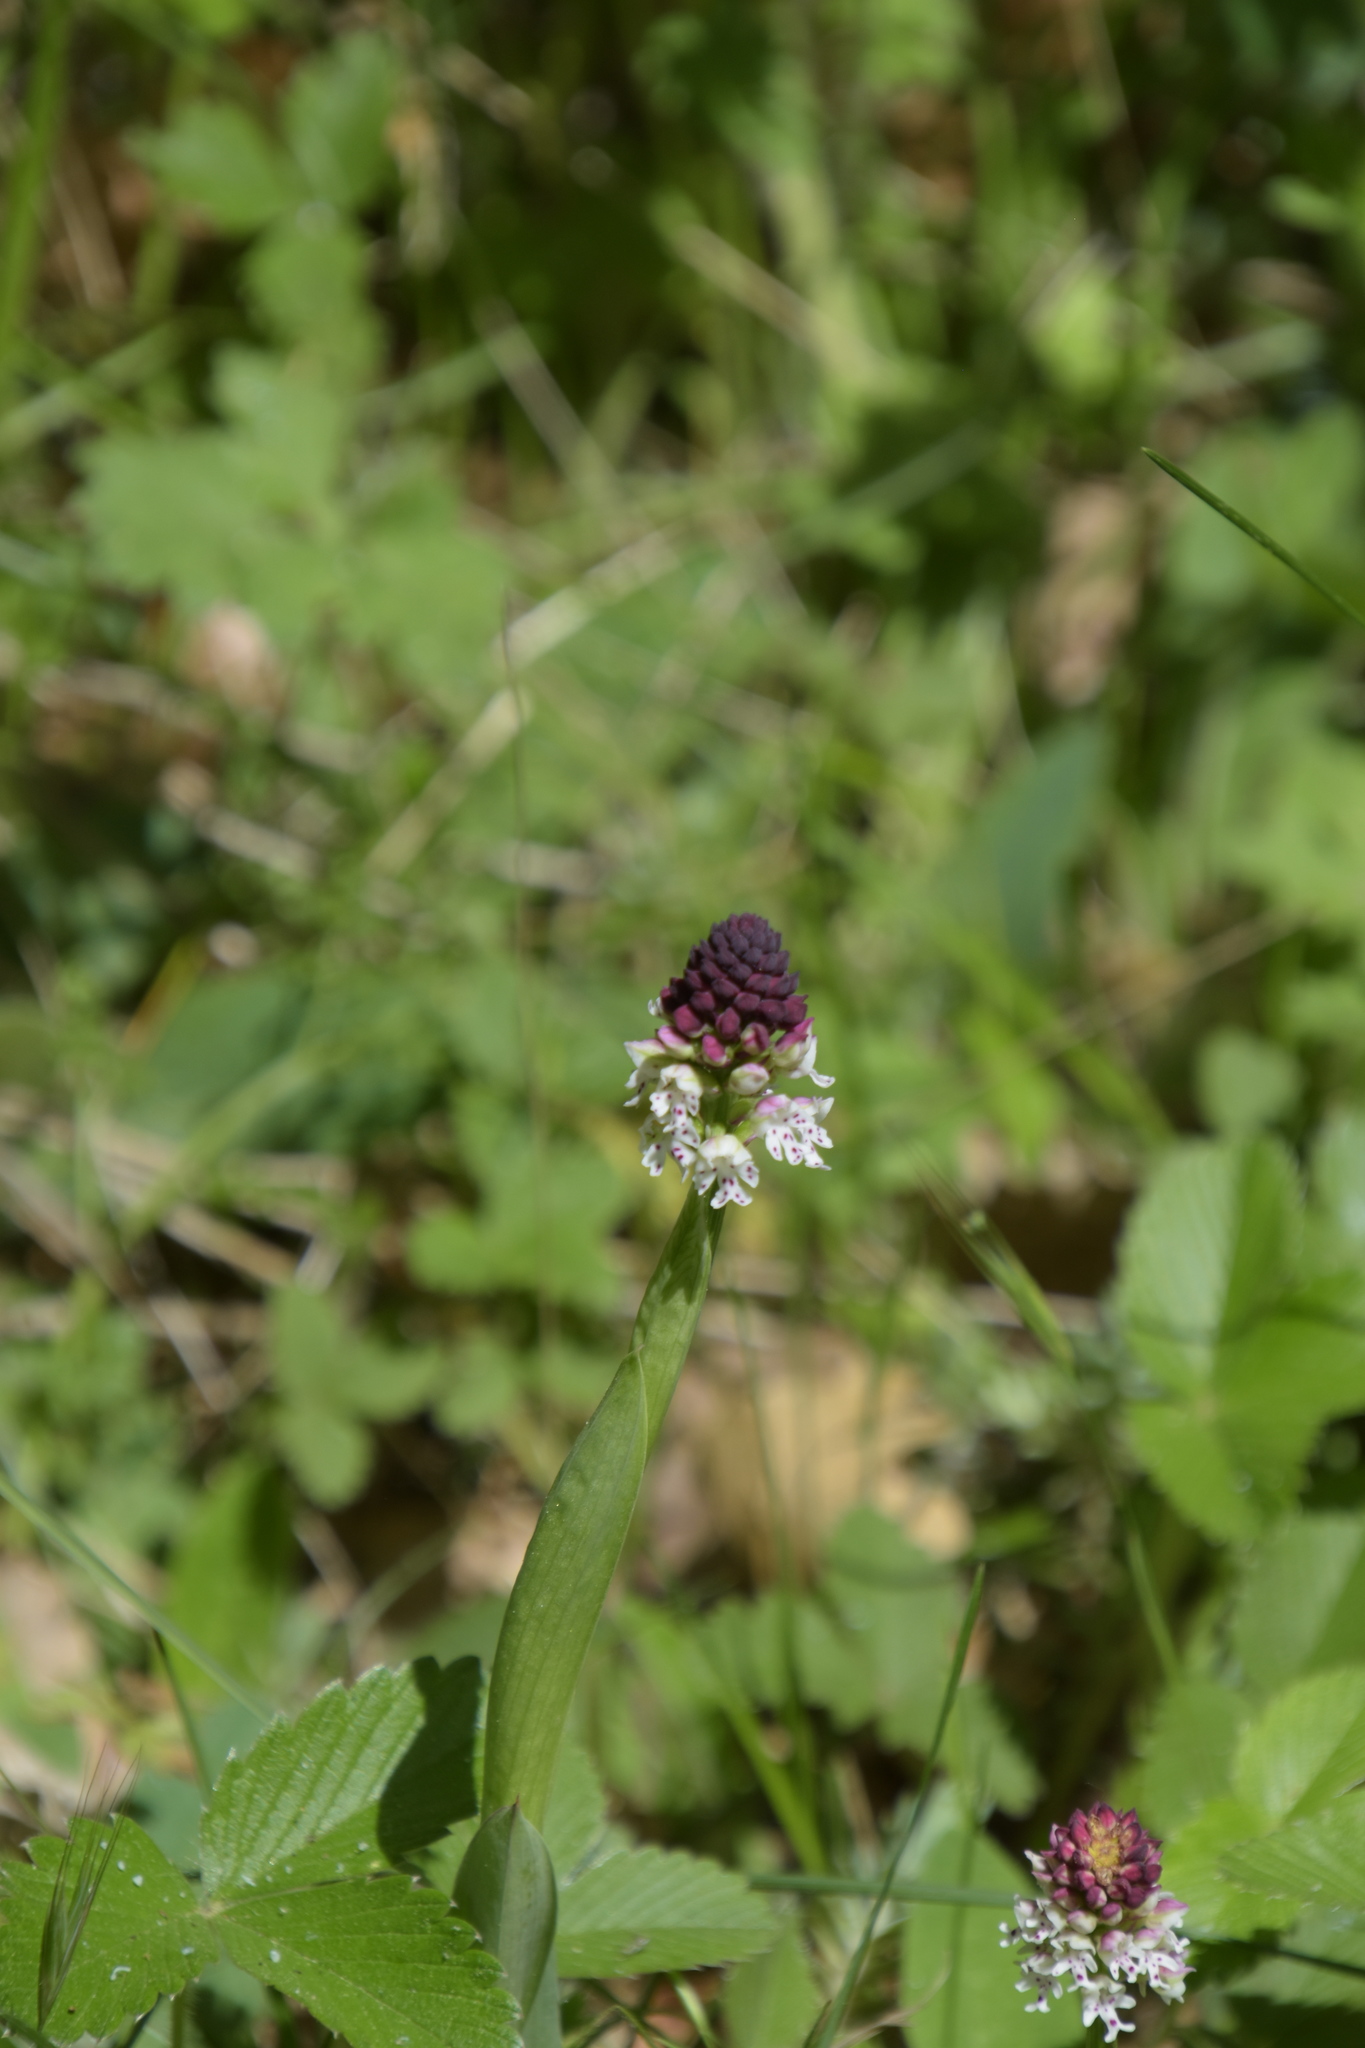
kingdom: Plantae
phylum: Tracheophyta
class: Liliopsida
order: Asparagales
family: Orchidaceae
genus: Neotinea
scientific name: Neotinea ustulata
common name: Burnt orchid
